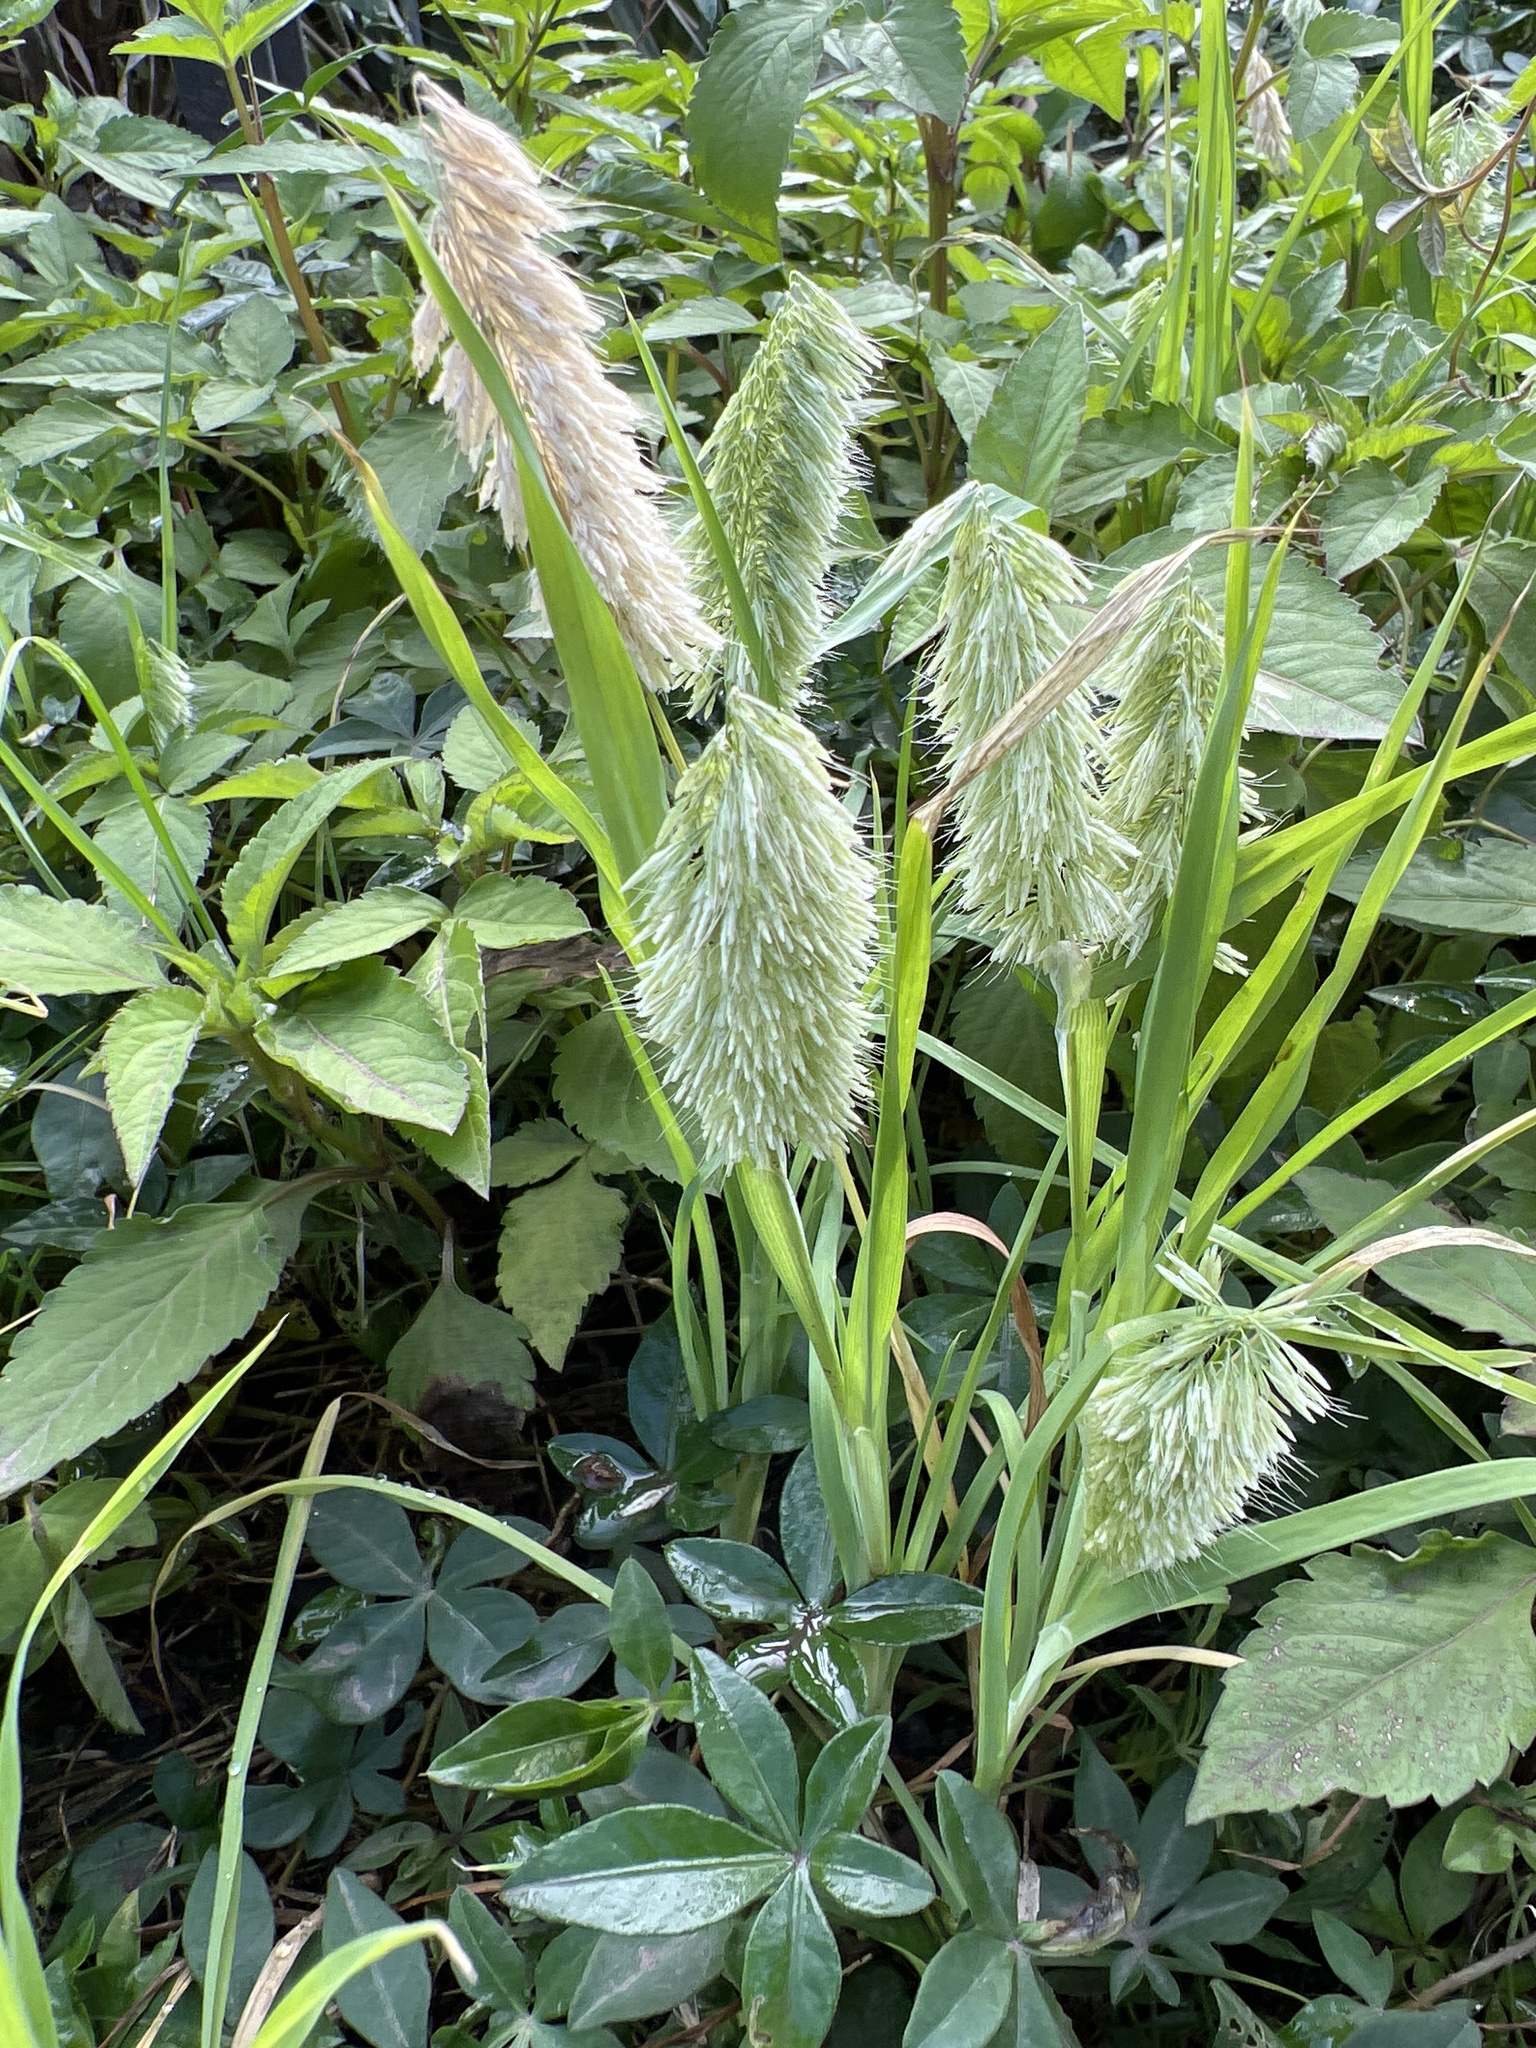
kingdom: Plantae
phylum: Tracheophyta
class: Liliopsida
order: Poales
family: Poaceae
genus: Lamarckia
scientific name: Lamarckia aurea
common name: Golden dog's-tail
